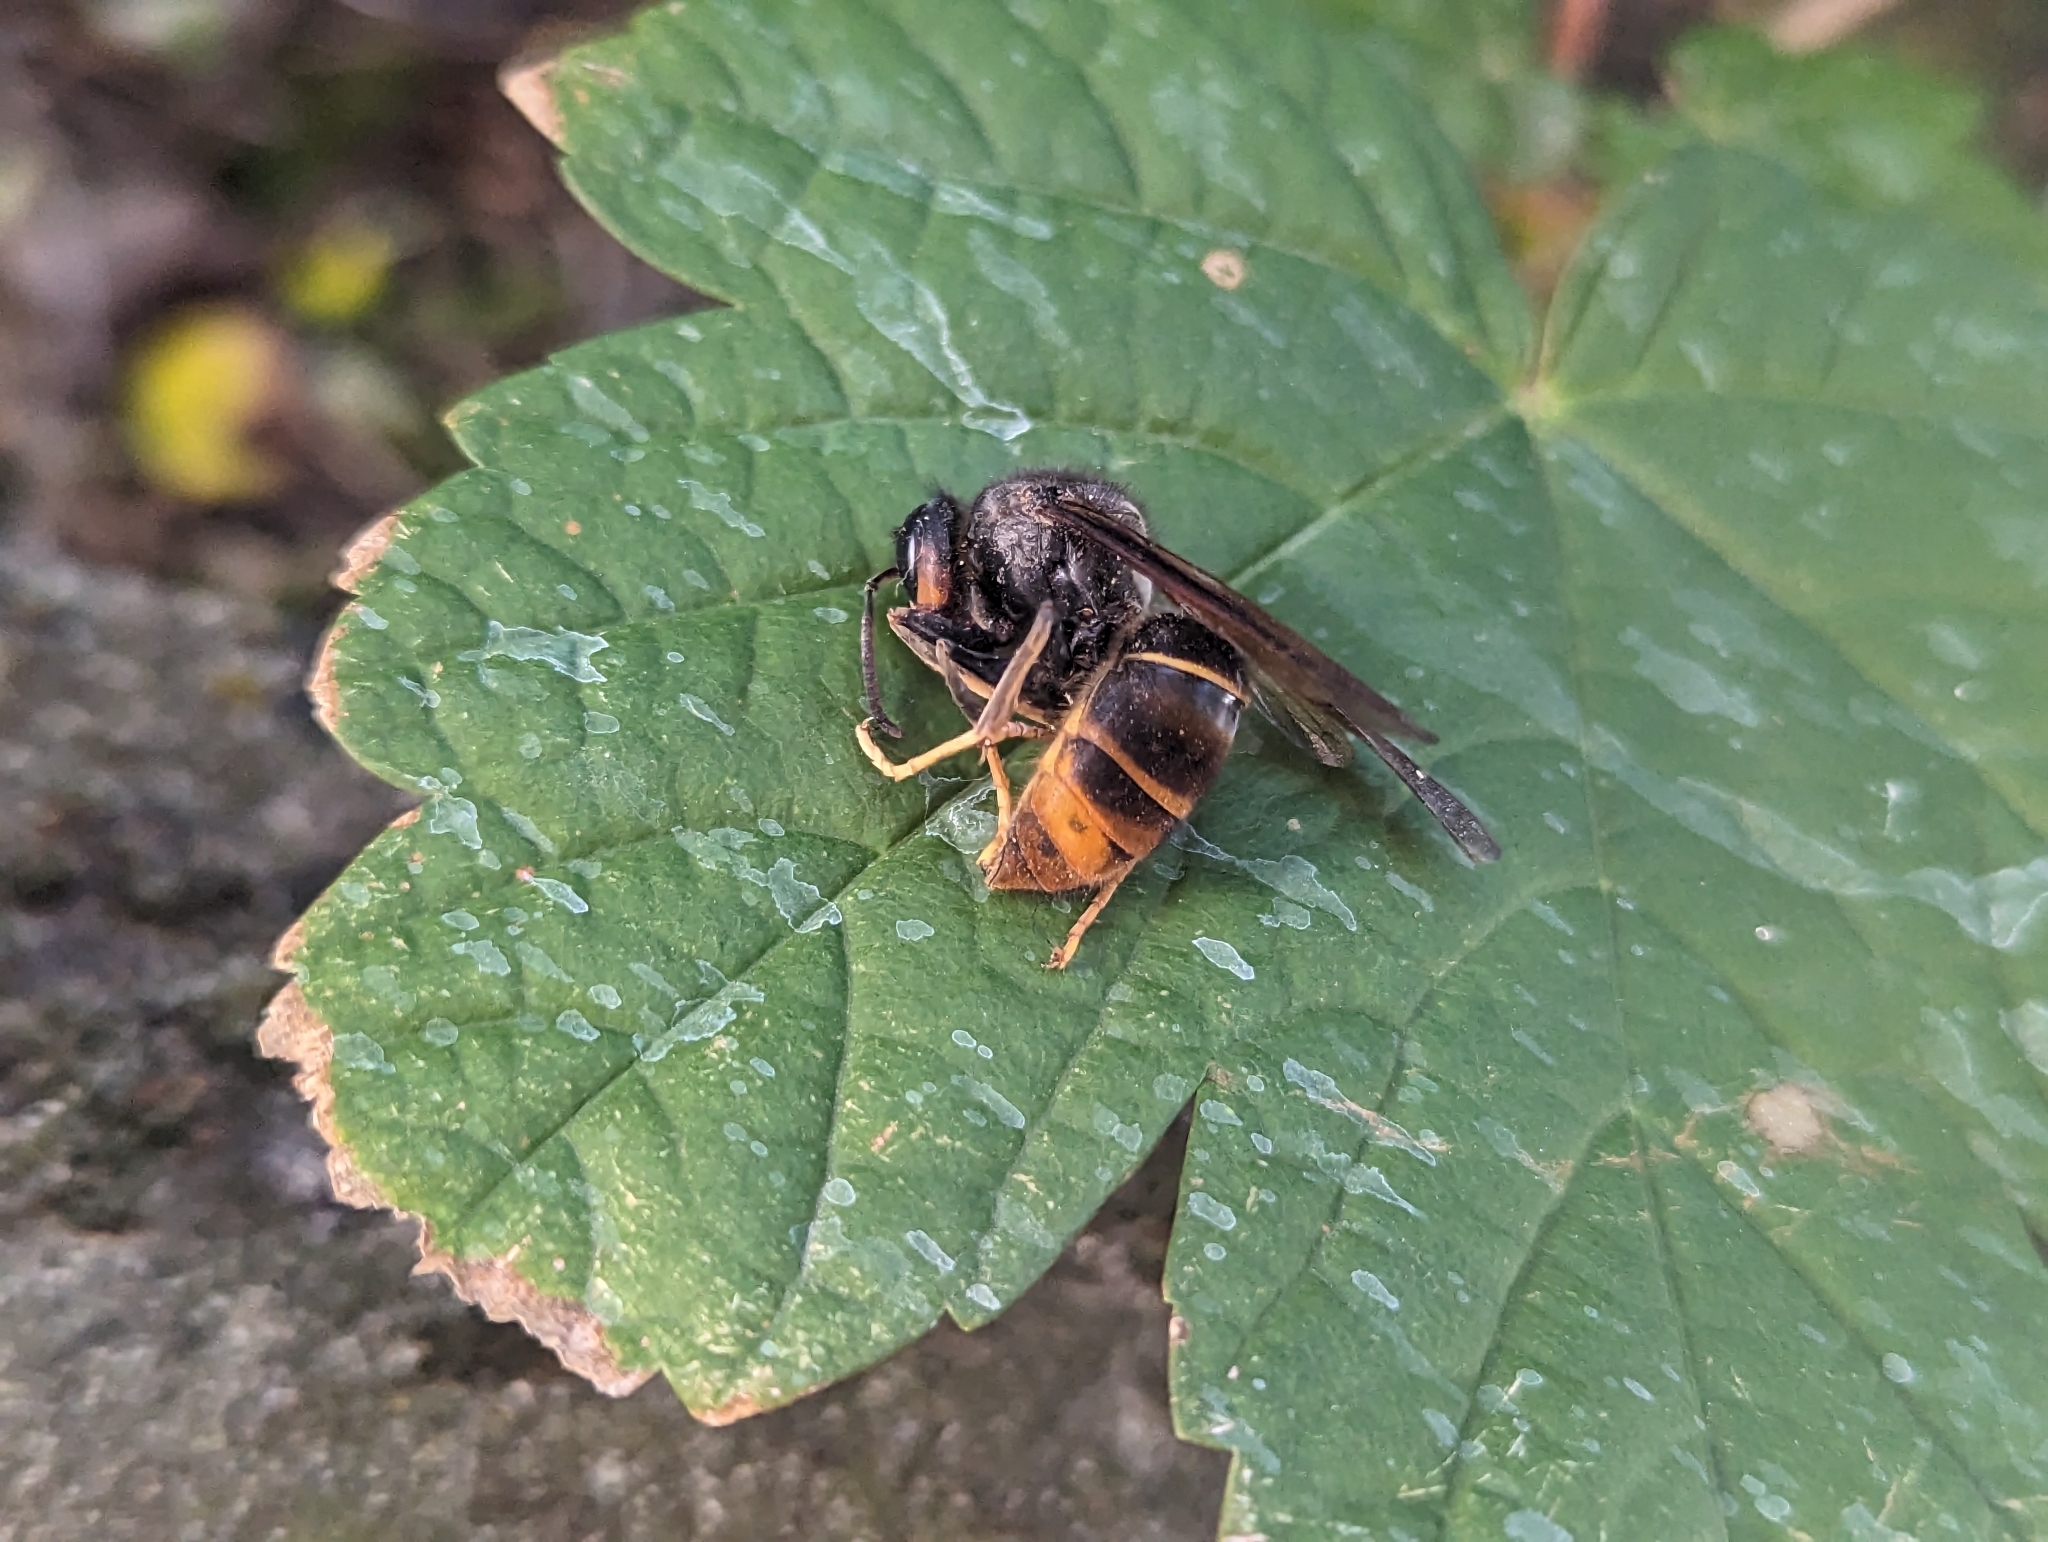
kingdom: Animalia
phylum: Arthropoda
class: Insecta
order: Hymenoptera
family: Vespidae
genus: Vespa
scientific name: Vespa velutina
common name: Asian hornet
